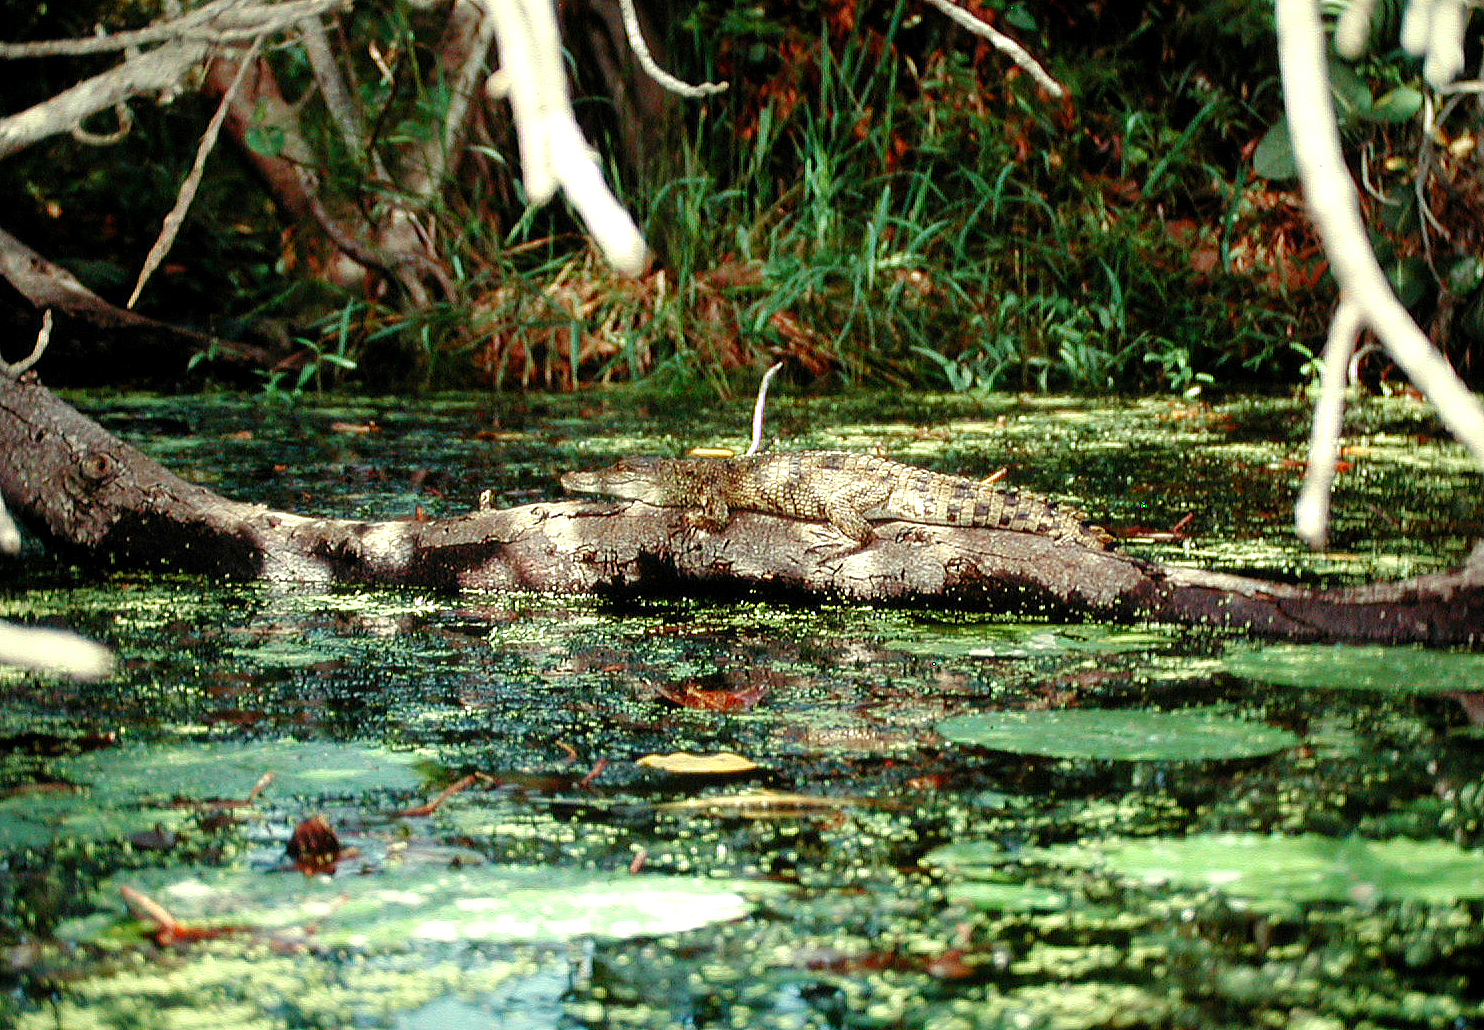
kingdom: Animalia
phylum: Chordata
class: Crocodylia
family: Crocodylidae
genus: Crocodylus
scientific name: Crocodylus niloticus
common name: Nile crocodile
